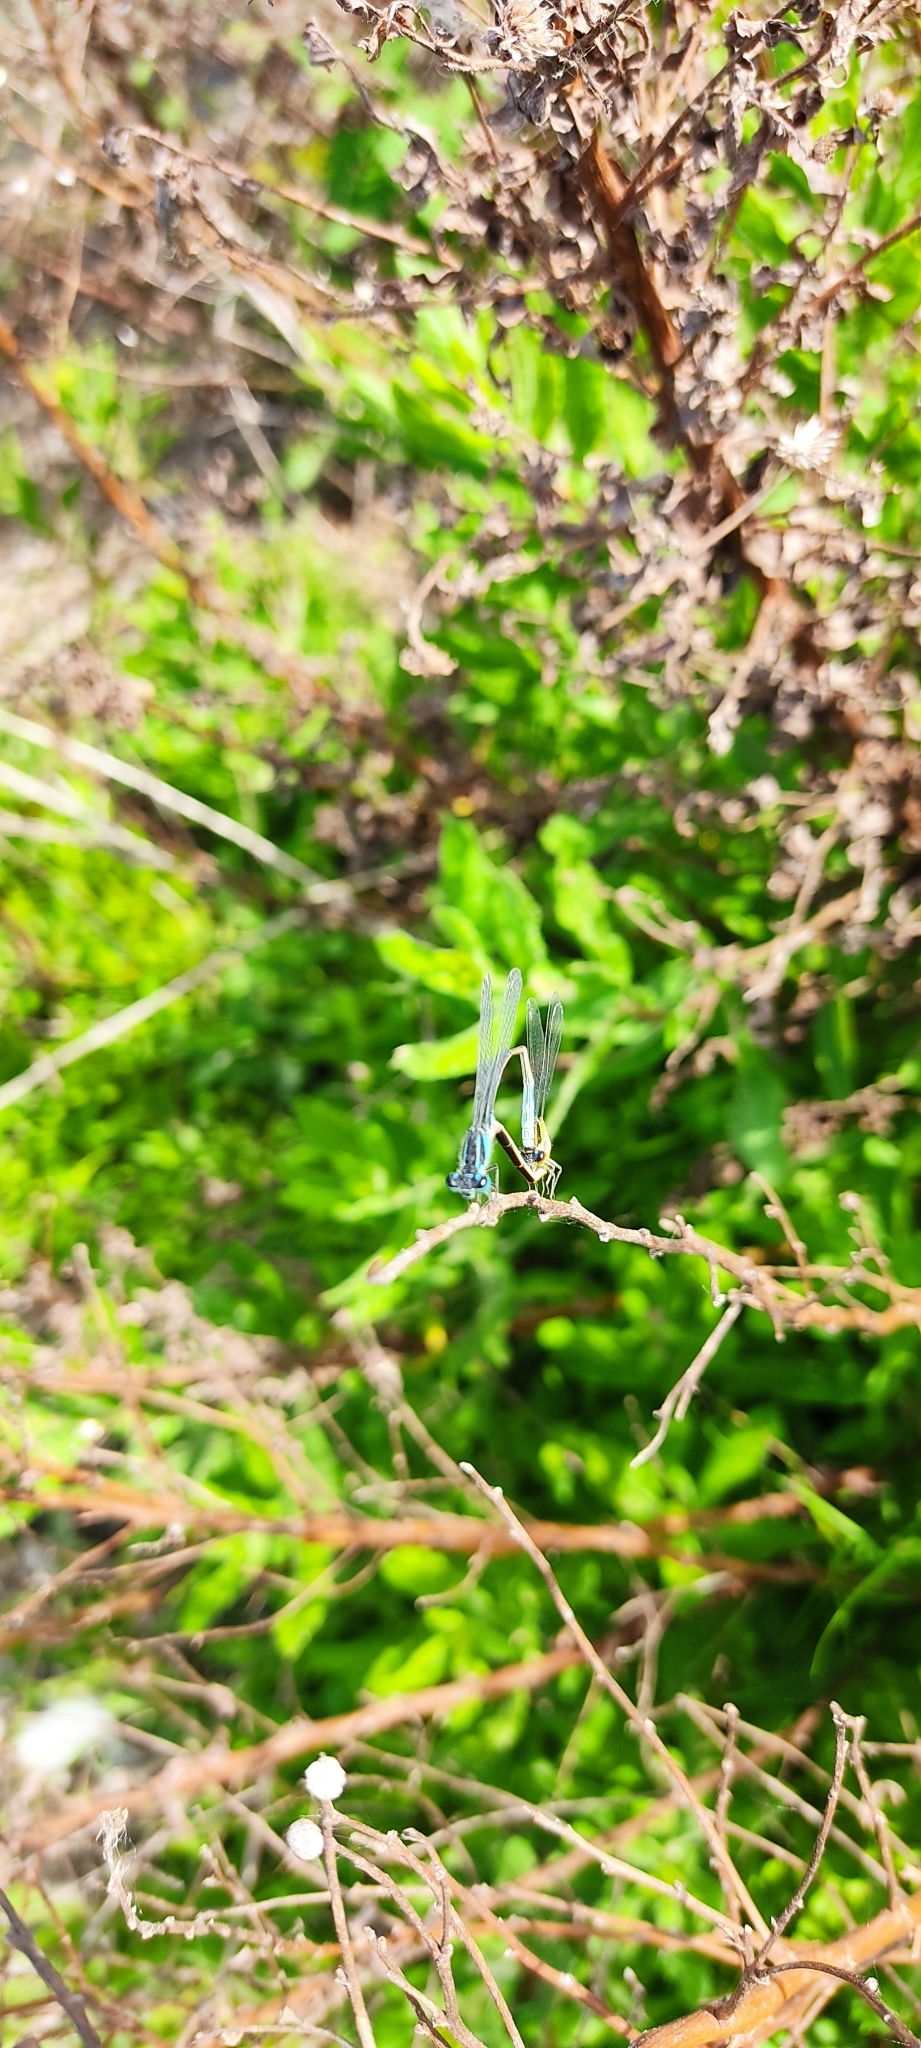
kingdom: Animalia
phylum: Arthropoda
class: Insecta
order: Odonata
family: Coenagrionidae
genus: Ischnura
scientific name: Ischnura elegans
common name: Blue-tailed damselfly
